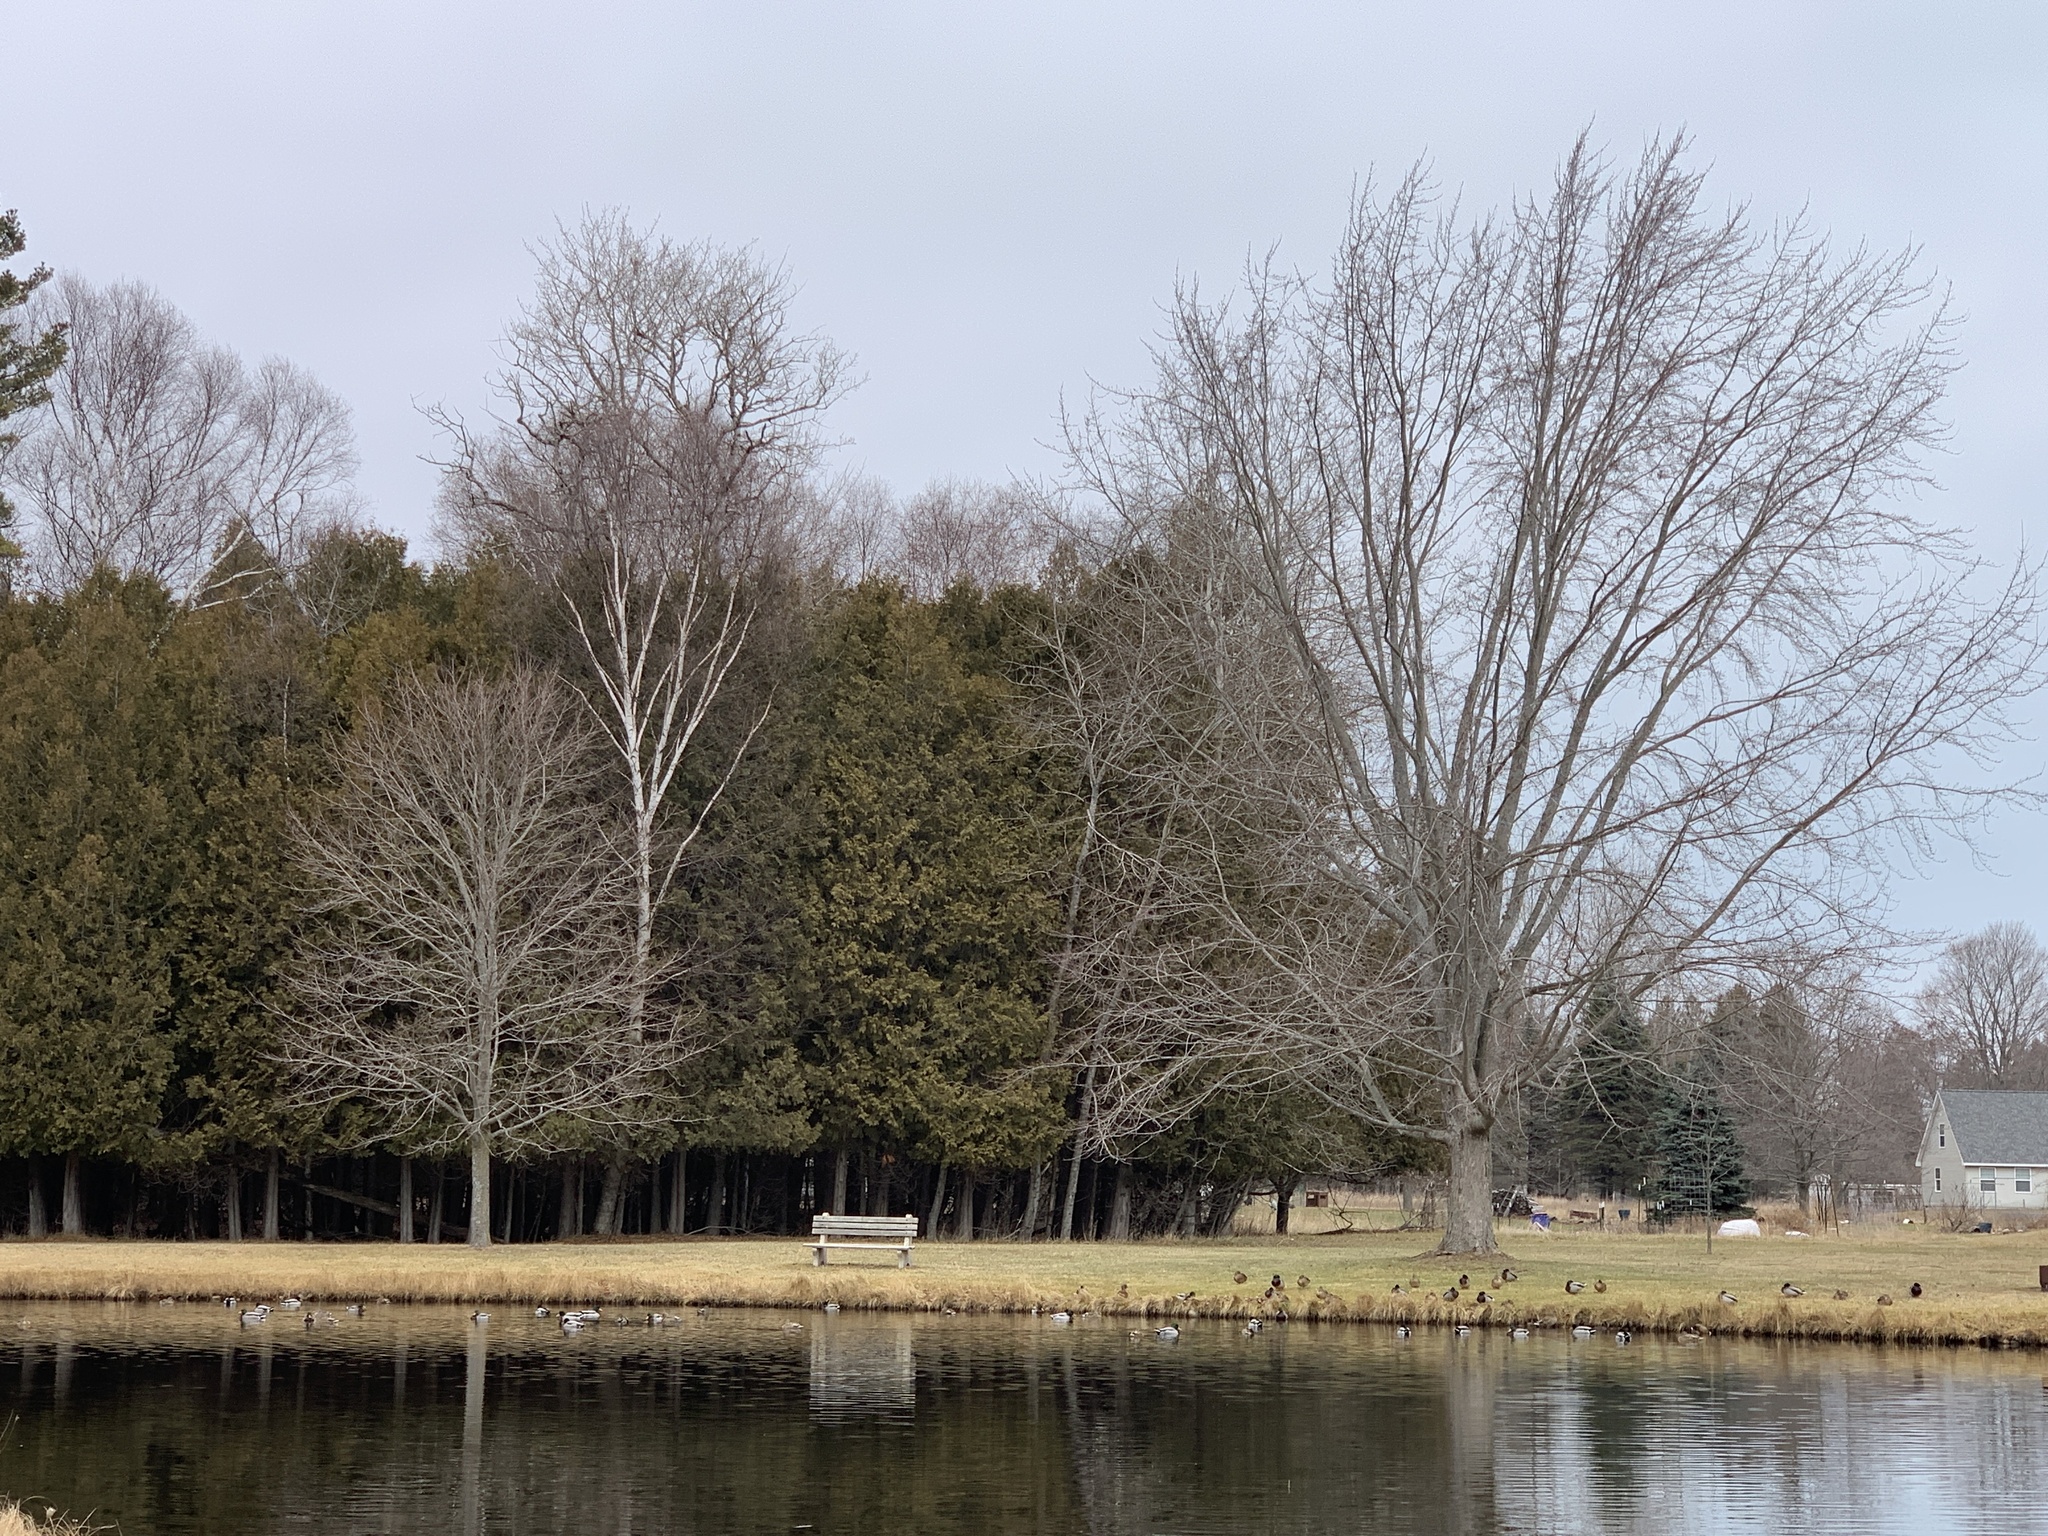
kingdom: Animalia
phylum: Chordata
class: Aves
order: Anseriformes
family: Anatidae
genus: Anas
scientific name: Anas platyrhynchos
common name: Mallard
